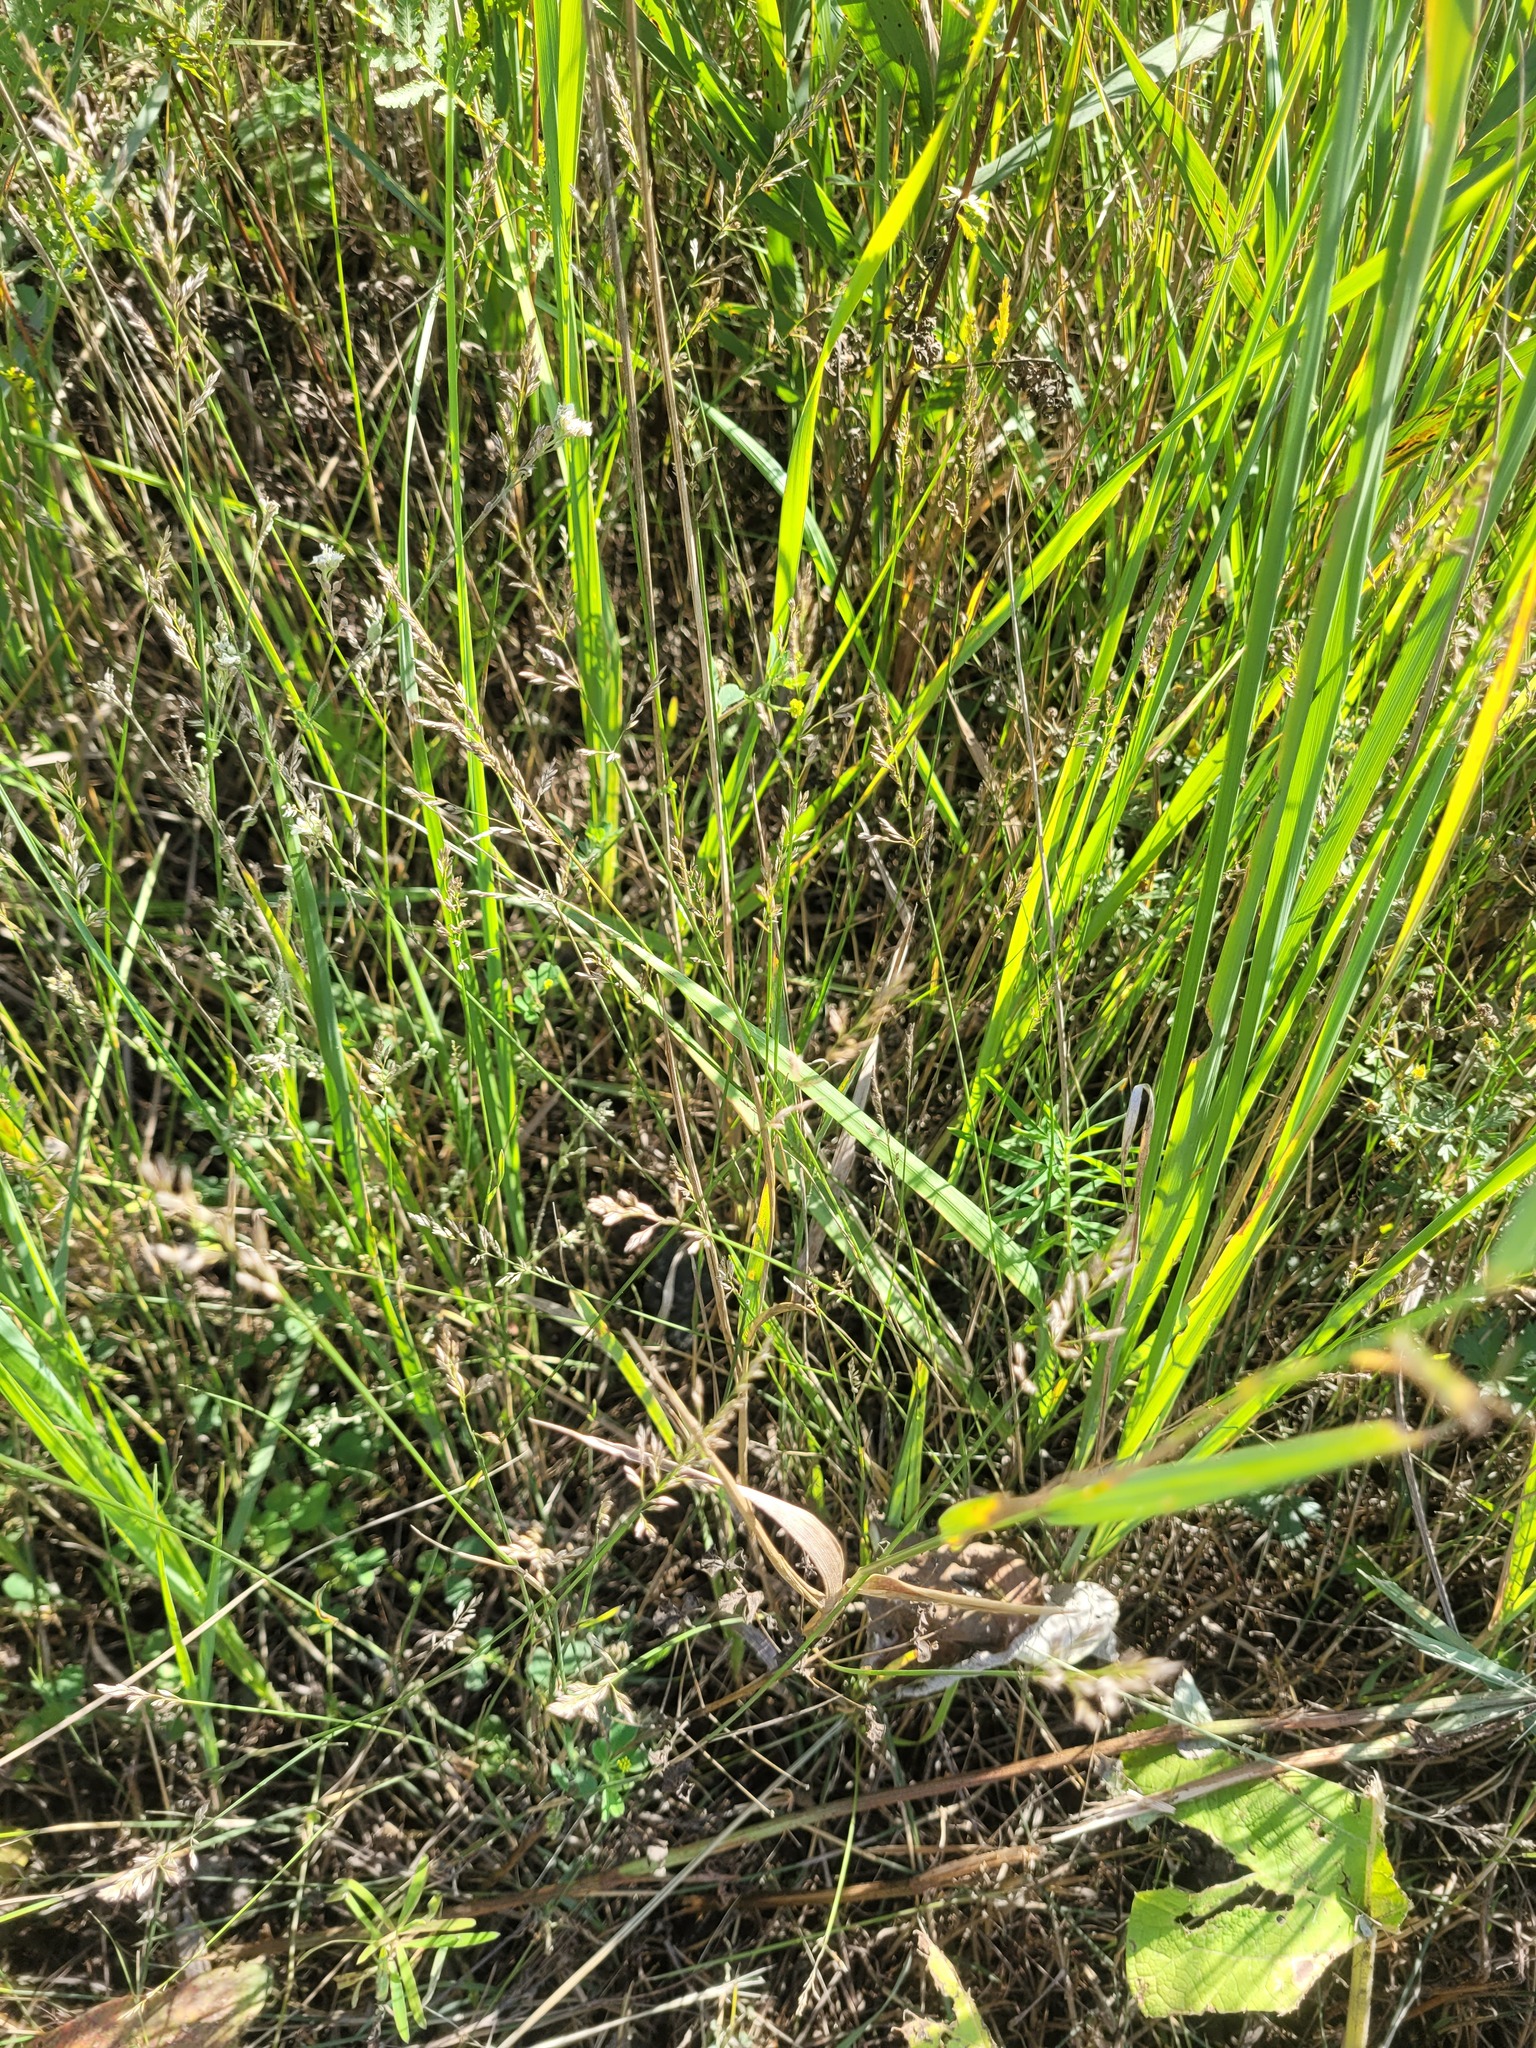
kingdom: Plantae
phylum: Tracheophyta
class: Liliopsida
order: Poales
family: Poaceae
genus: Poa
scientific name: Poa compressa
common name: Canada bluegrass
